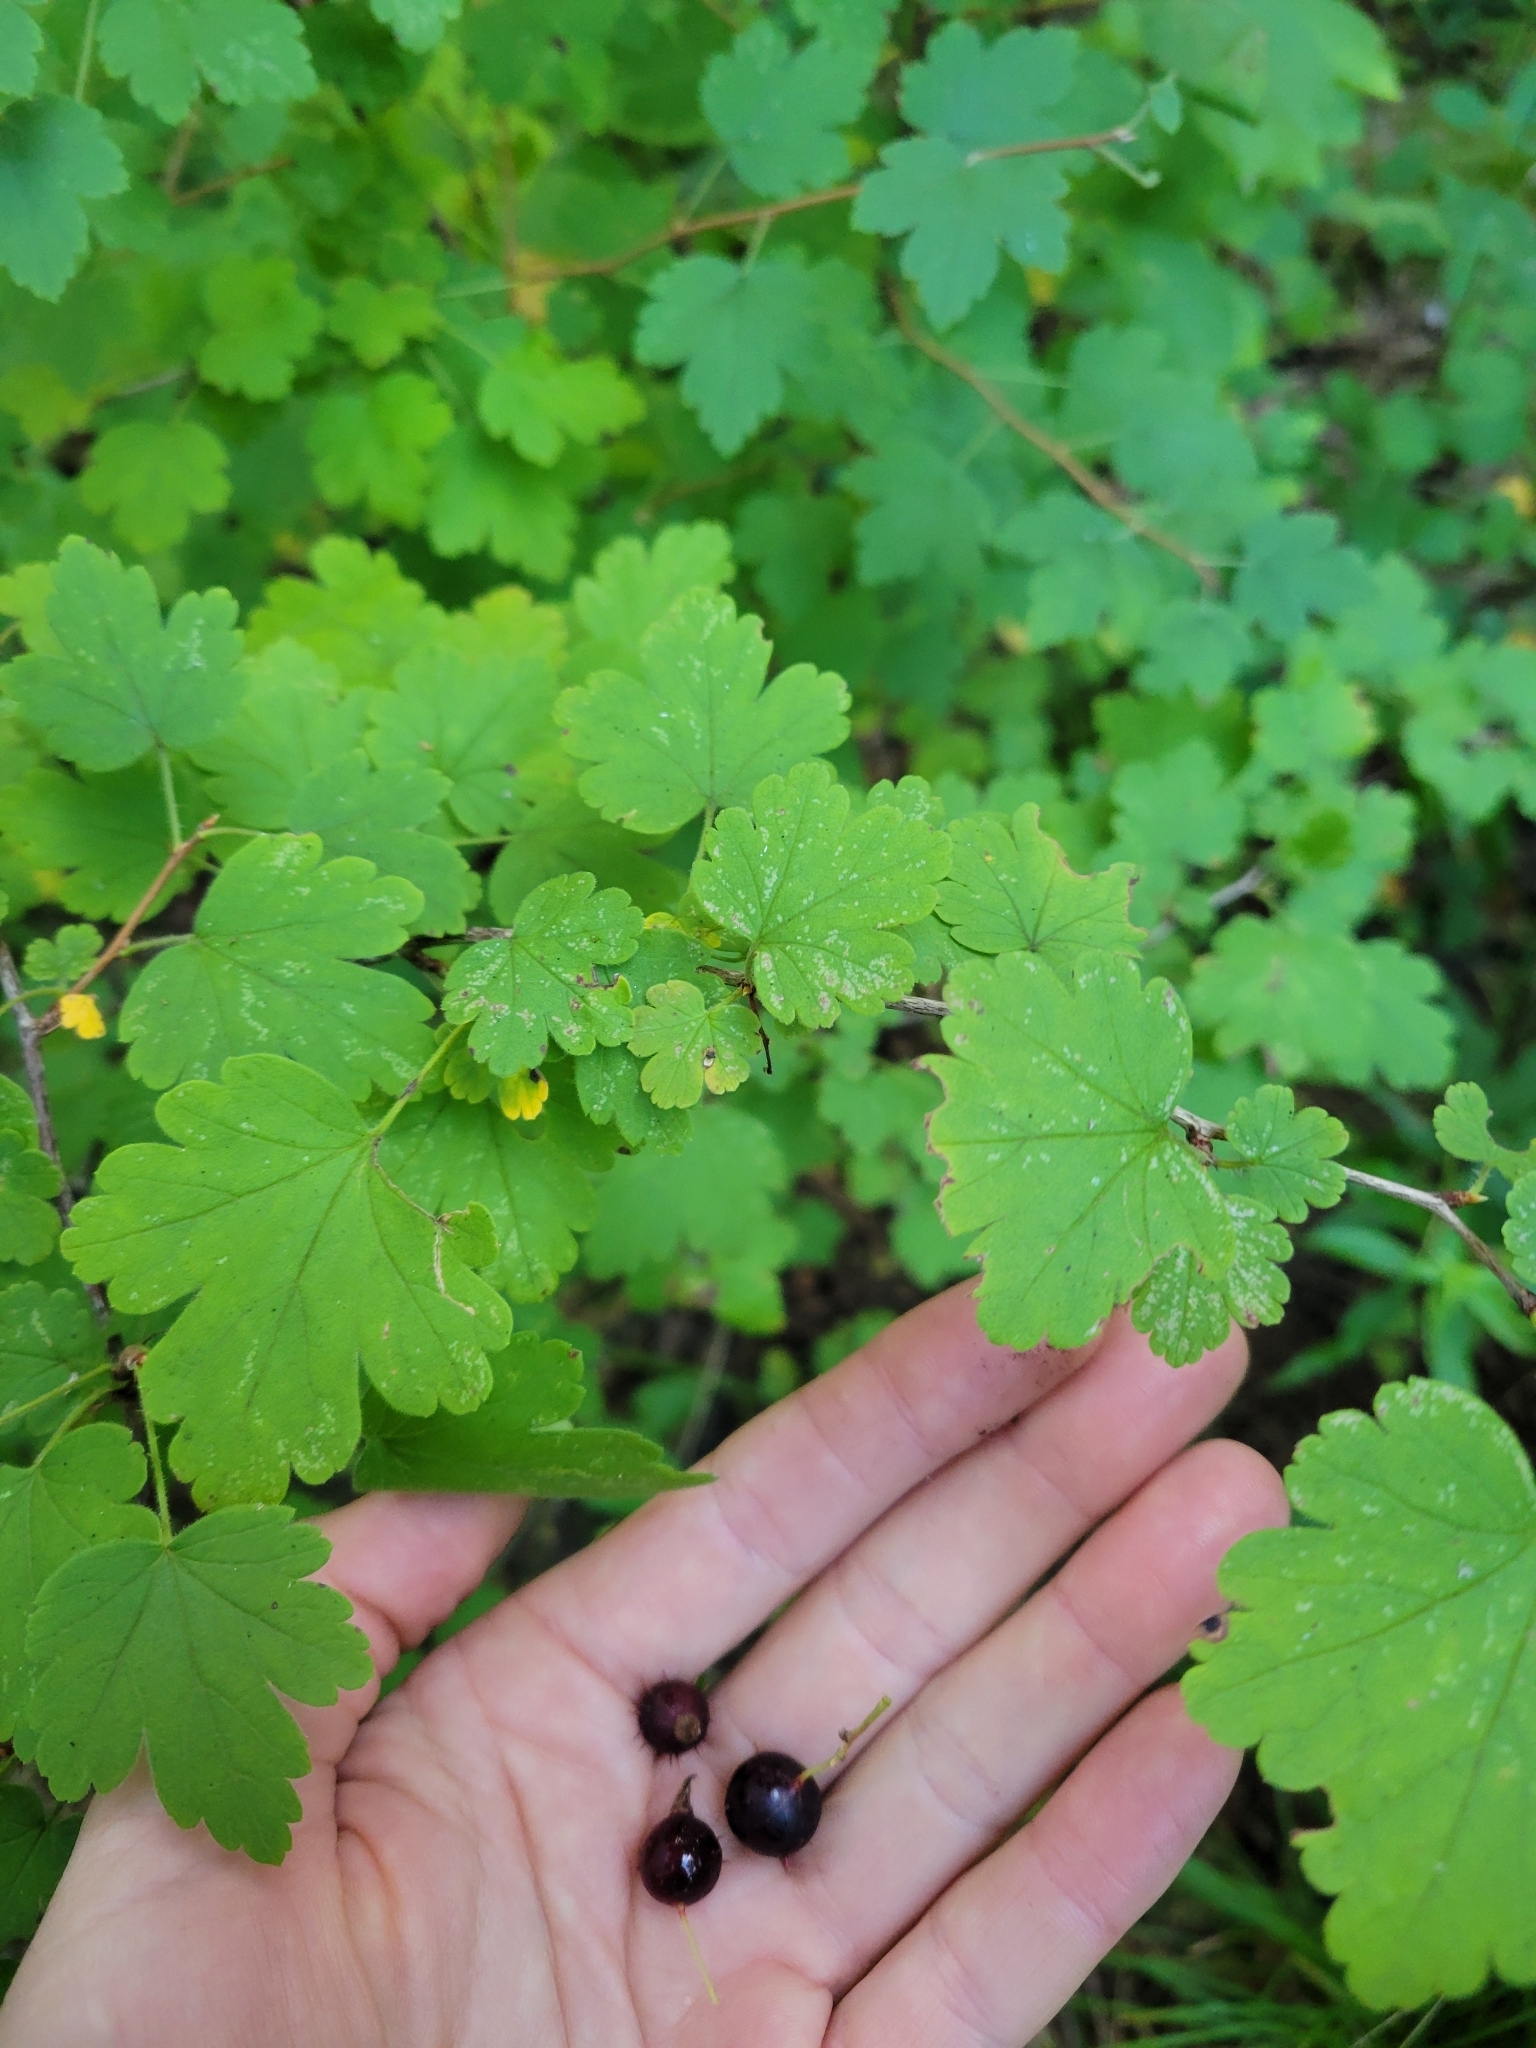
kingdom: Plantae
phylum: Tracheophyta
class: Magnoliopsida
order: Saxifragales
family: Grossulariaceae
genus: Ribes
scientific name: Ribes cynosbati
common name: American gooseberry
